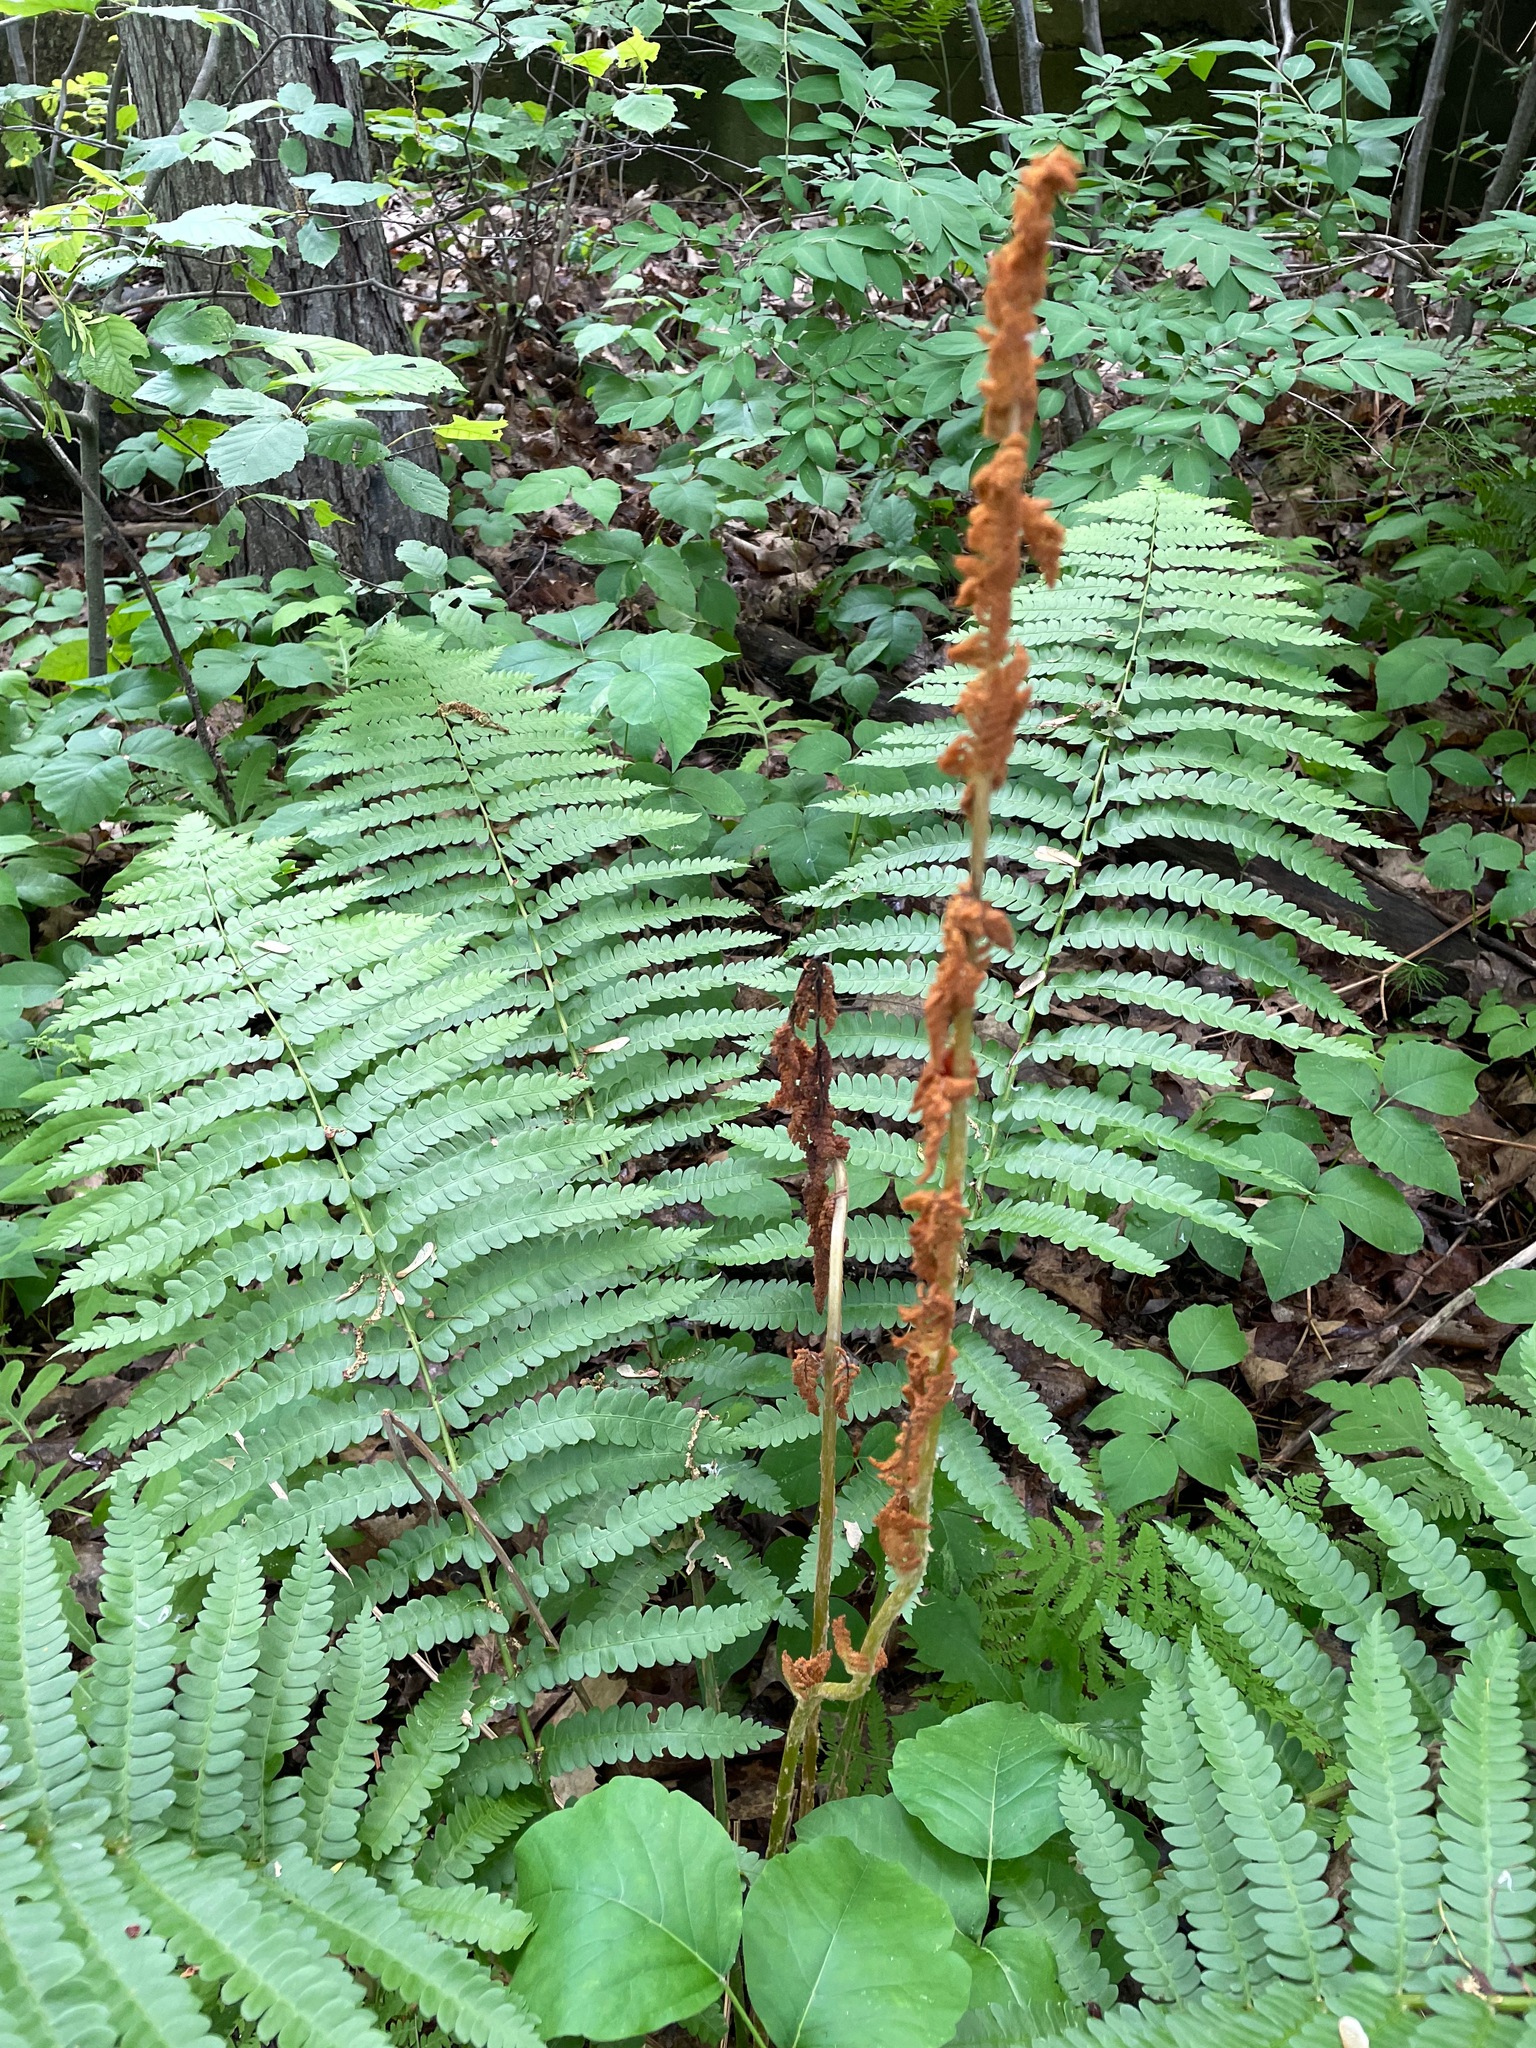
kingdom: Plantae
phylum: Tracheophyta
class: Polypodiopsida
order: Osmundales
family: Osmundaceae
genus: Osmundastrum
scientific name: Osmundastrum cinnamomeum
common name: Cinnamon fern
